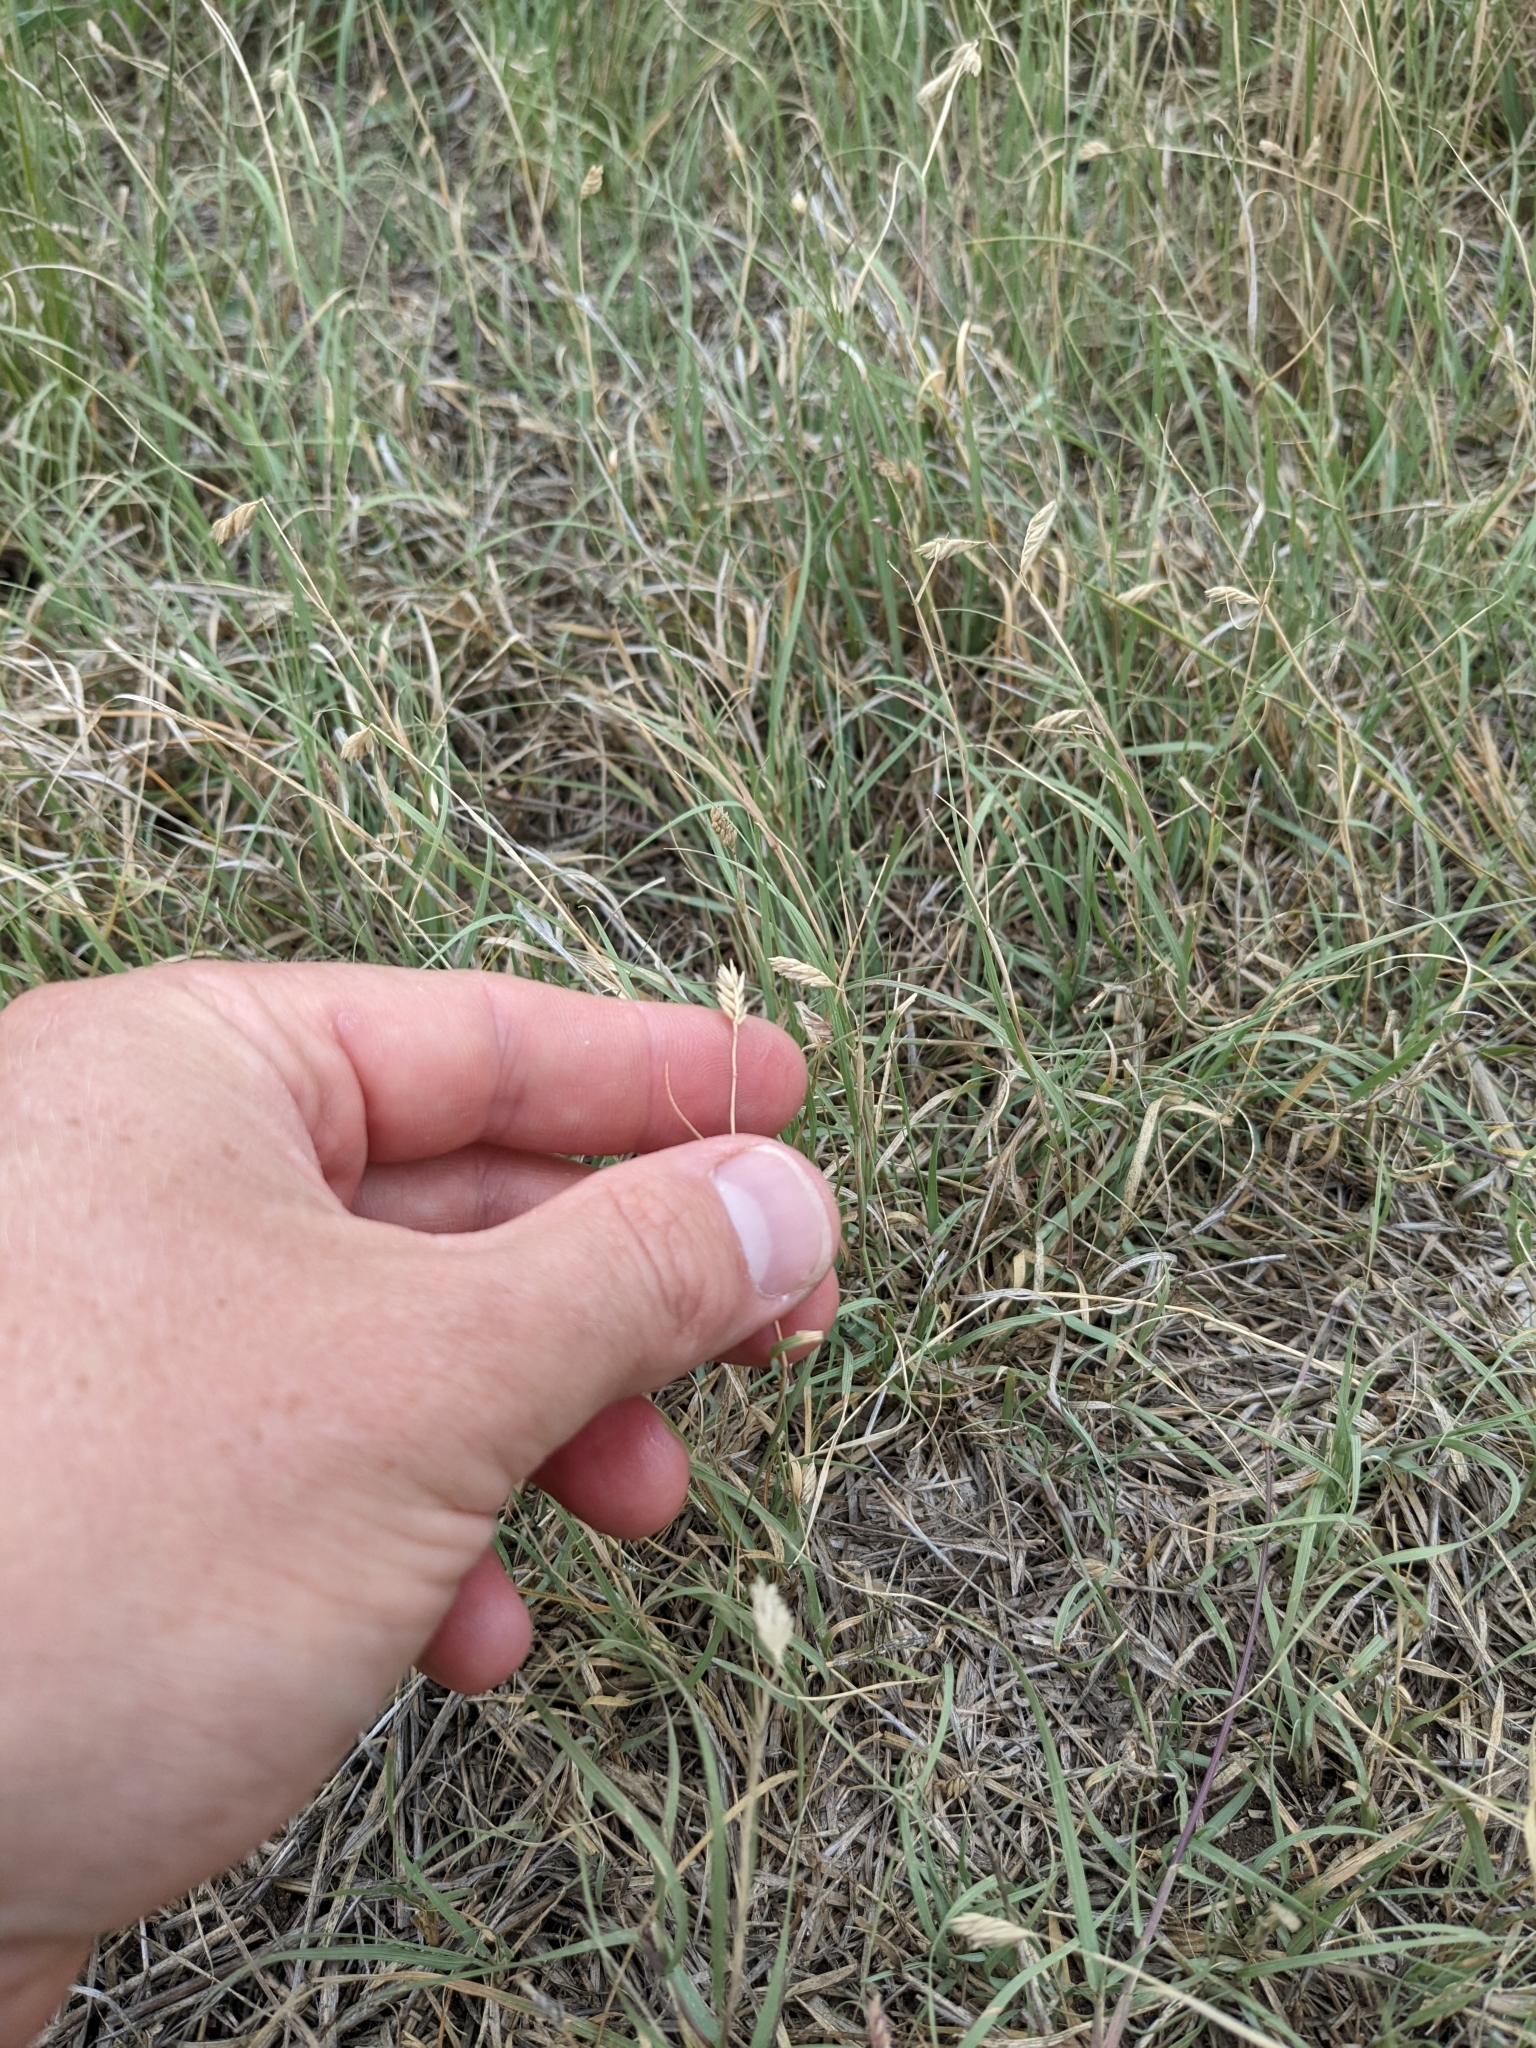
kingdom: Plantae
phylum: Tracheophyta
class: Liliopsida
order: Poales
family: Poaceae
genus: Bouteloua
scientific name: Bouteloua dactyloides
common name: Buffalo grass
